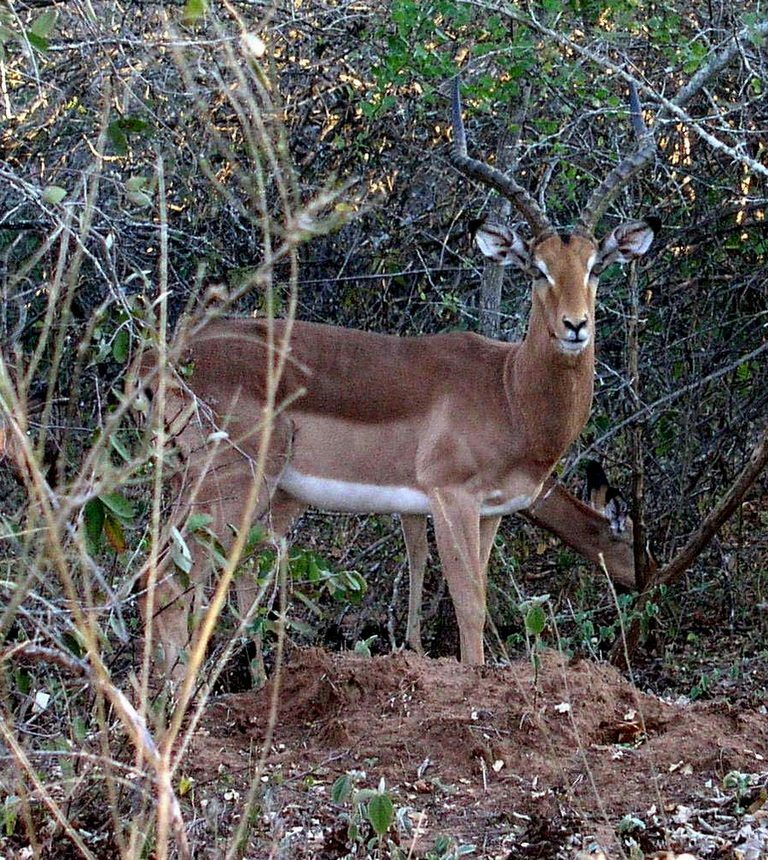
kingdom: Animalia
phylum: Chordata
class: Mammalia
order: Artiodactyla
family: Bovidae
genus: Aepyceros
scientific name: Aepyceros melampus
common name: Impala
